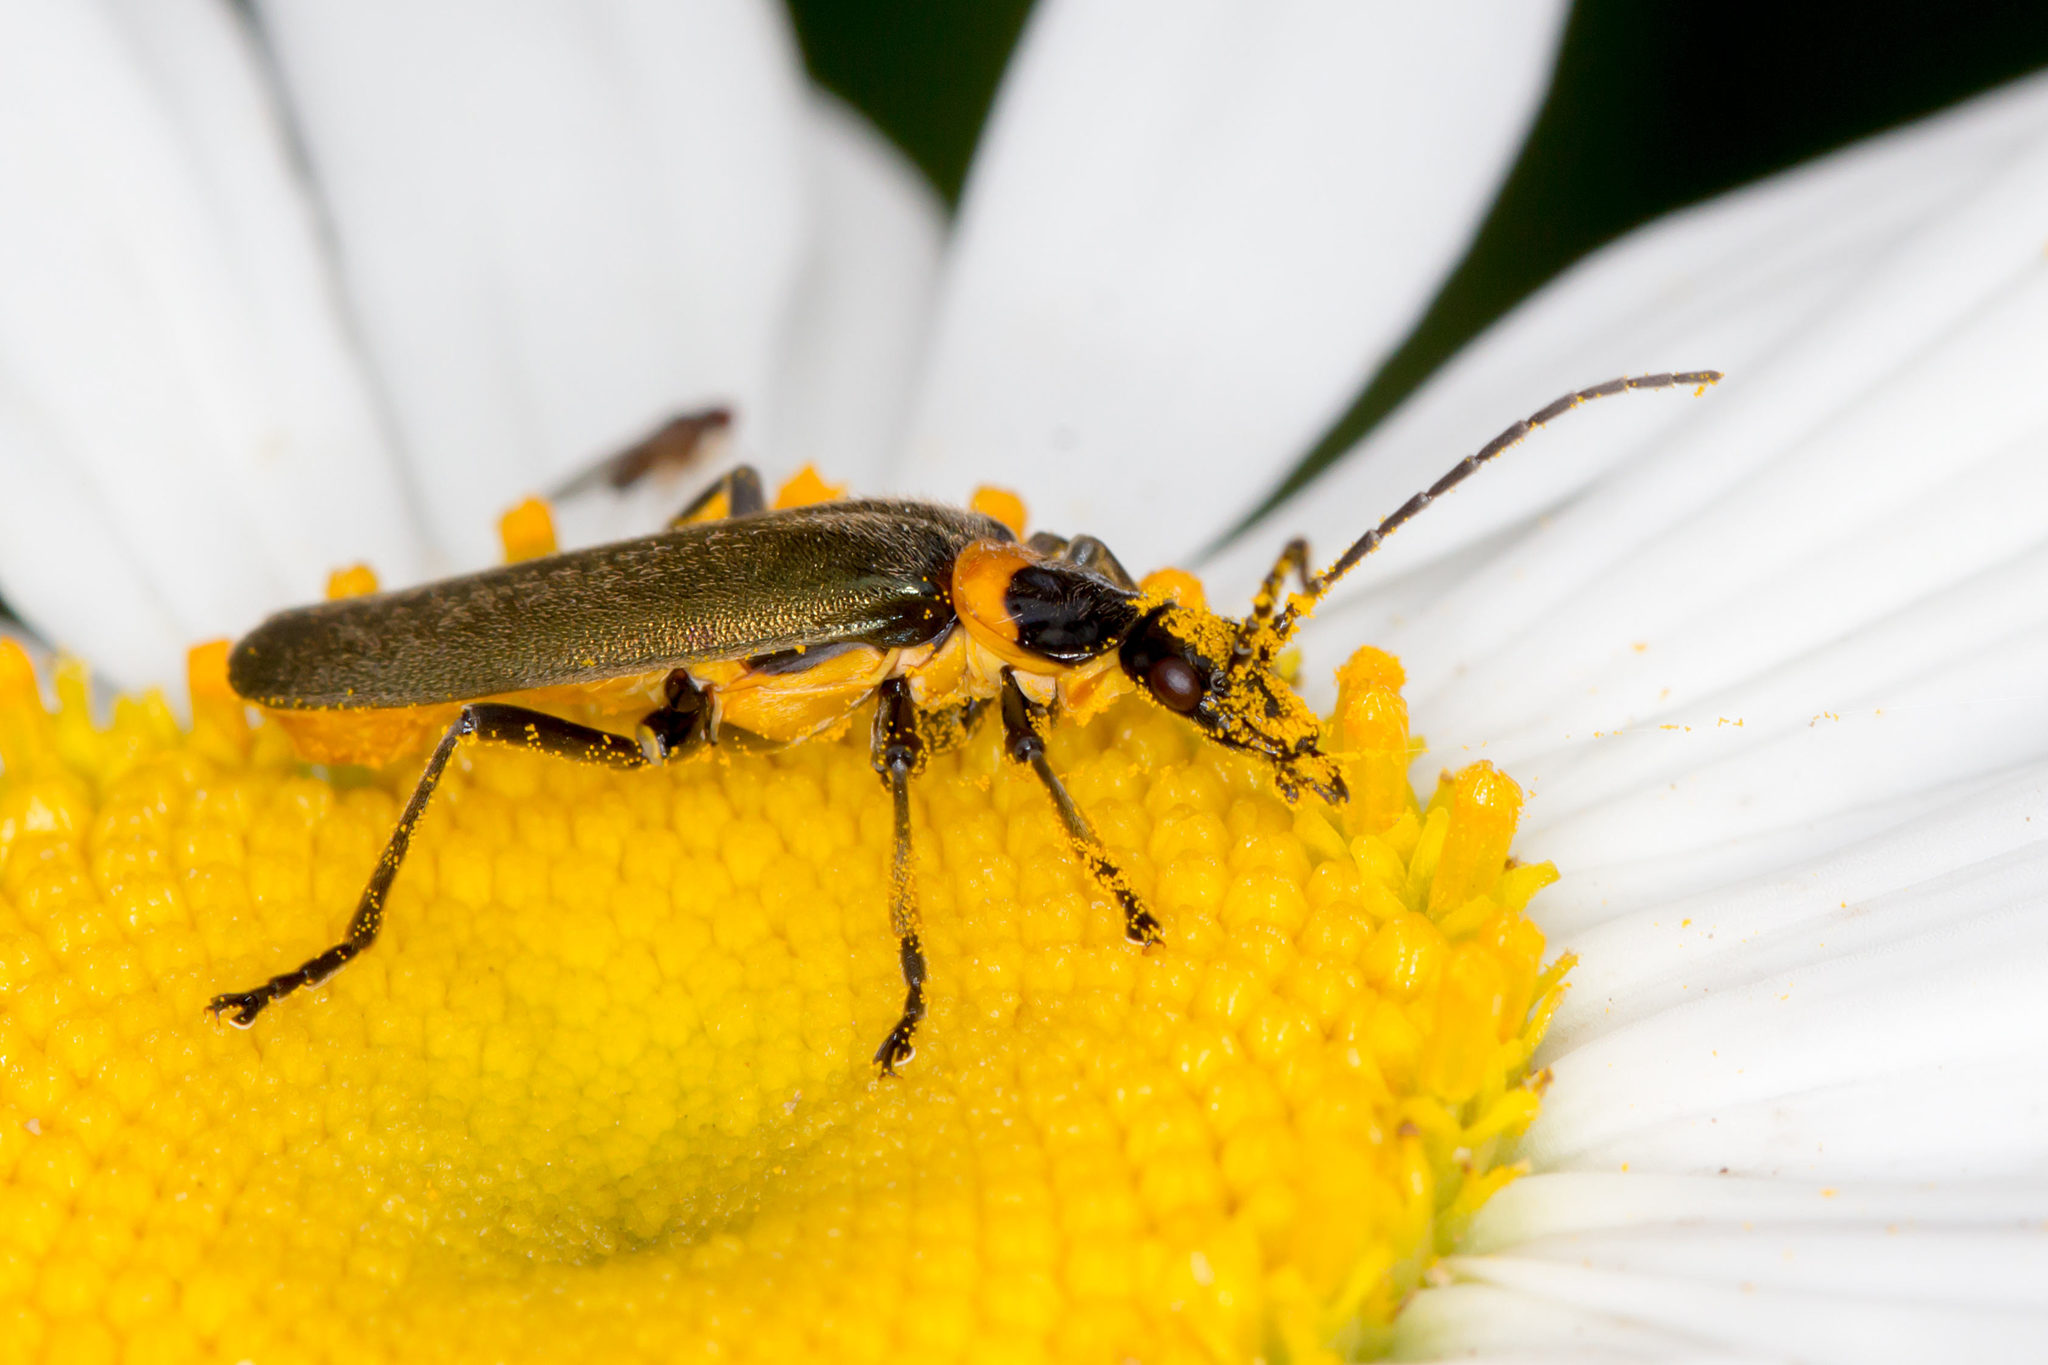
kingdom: Animalia
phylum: Arthropoda
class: Insecta
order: Coleoptera
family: Cantharidae
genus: Chauliognathus
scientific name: Chauliognathus
